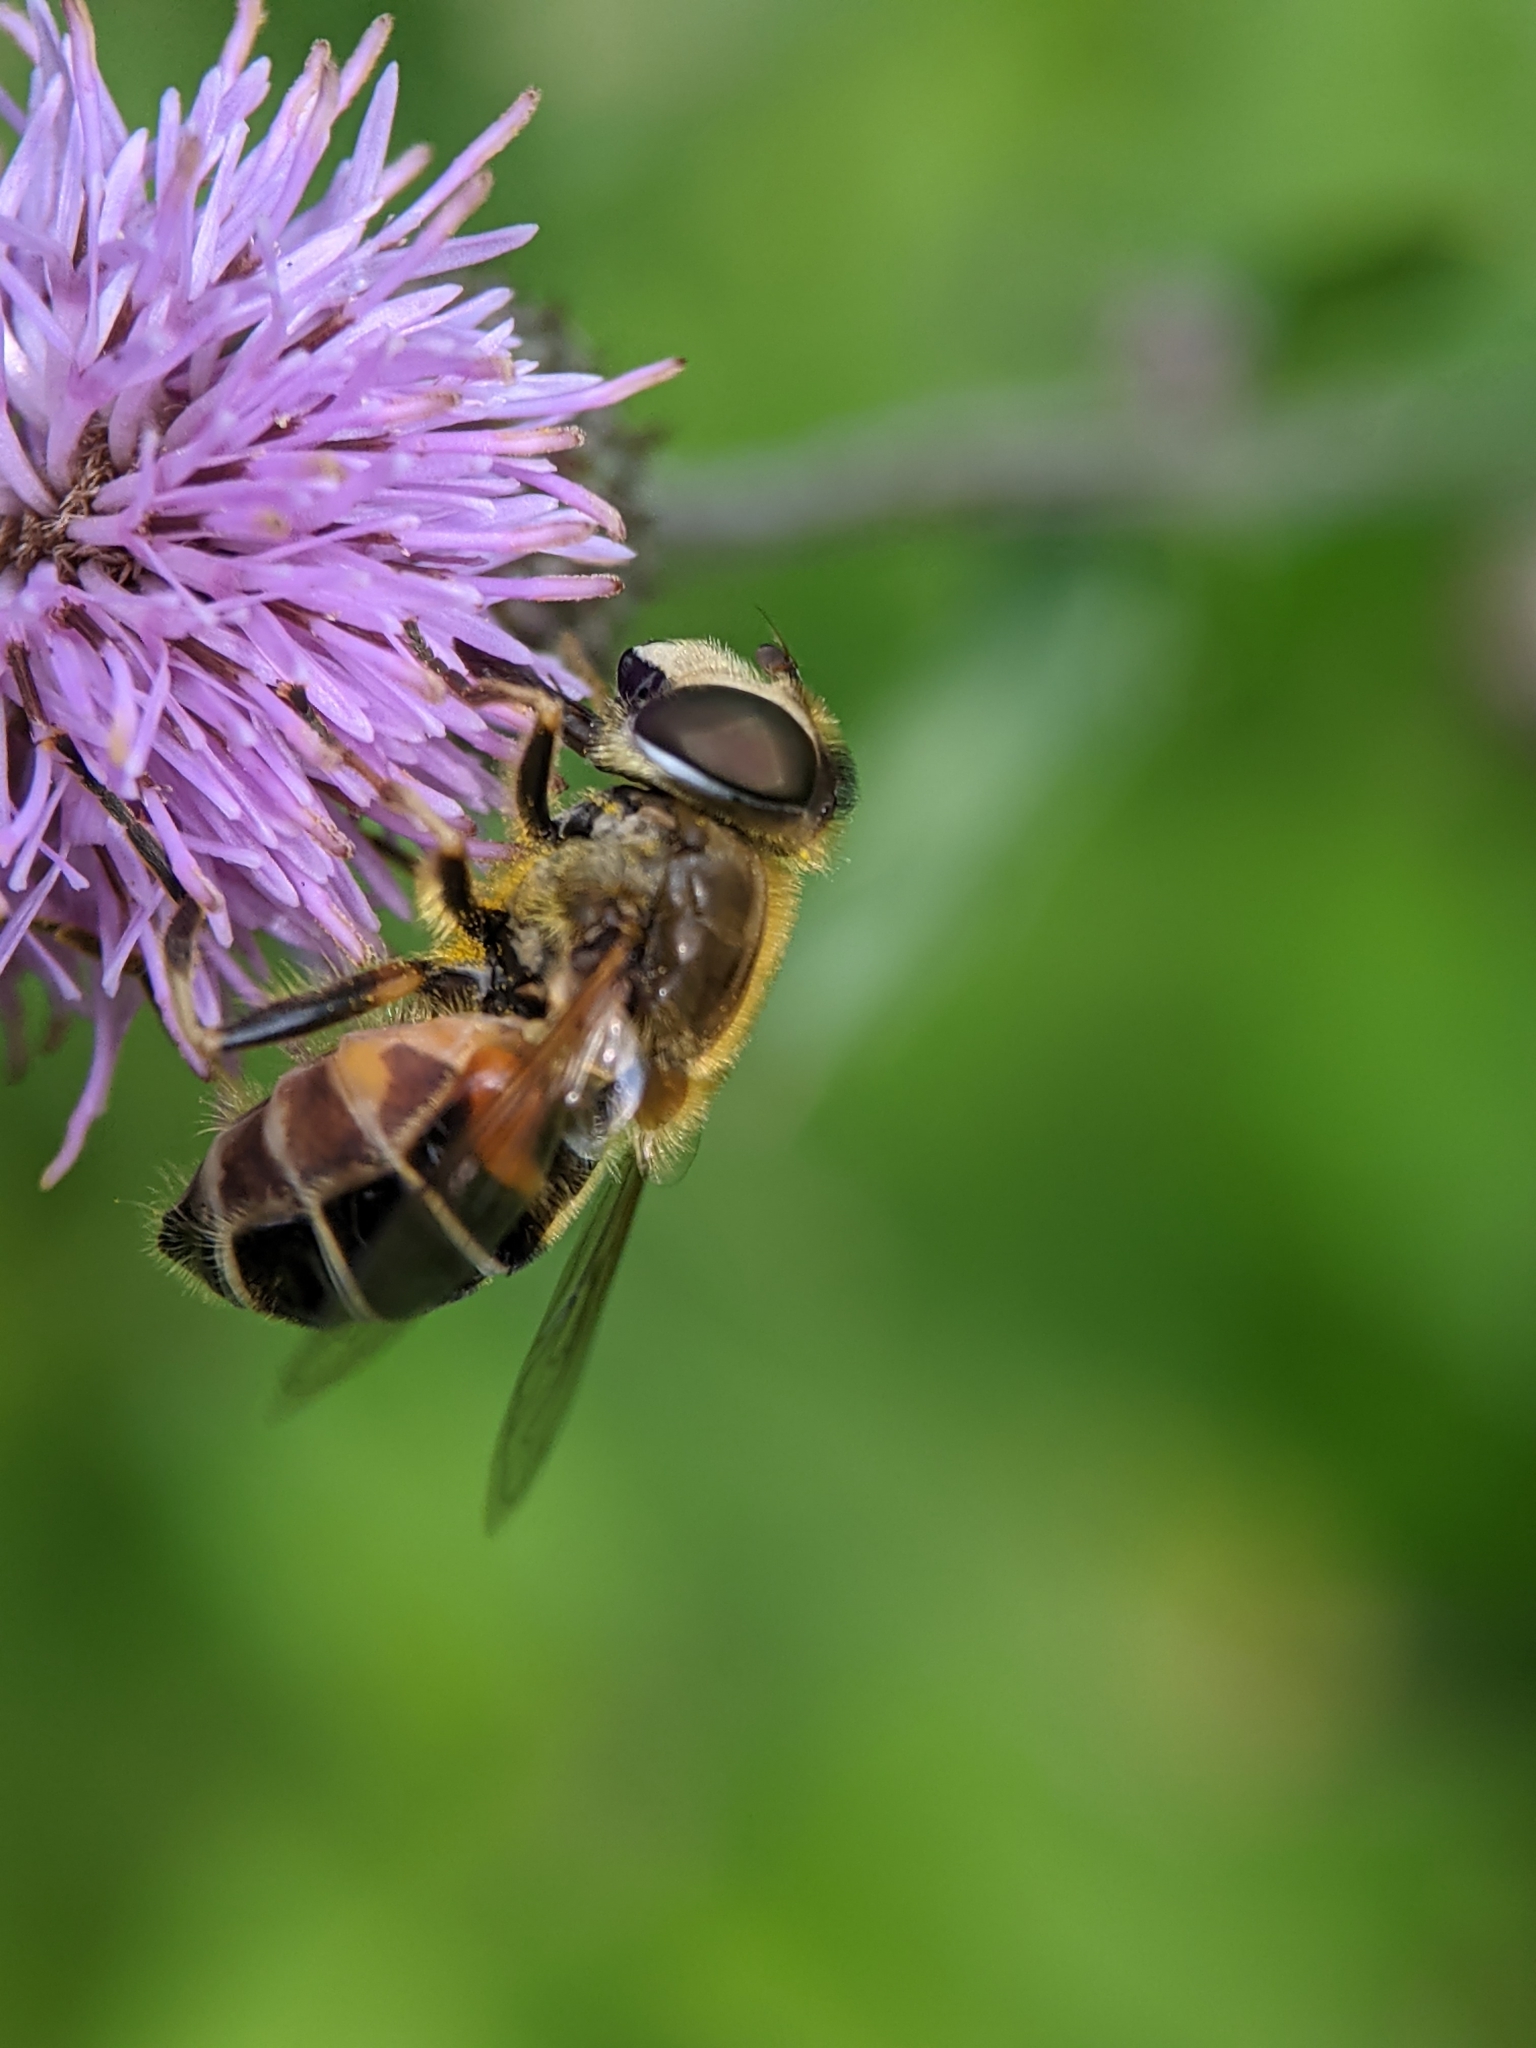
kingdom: Animalia
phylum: Arthropoda
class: Insecta
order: Diptera
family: Syrphidae
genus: Eristalis
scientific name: Eristalis nemorum
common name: Orange-spined drone fly
